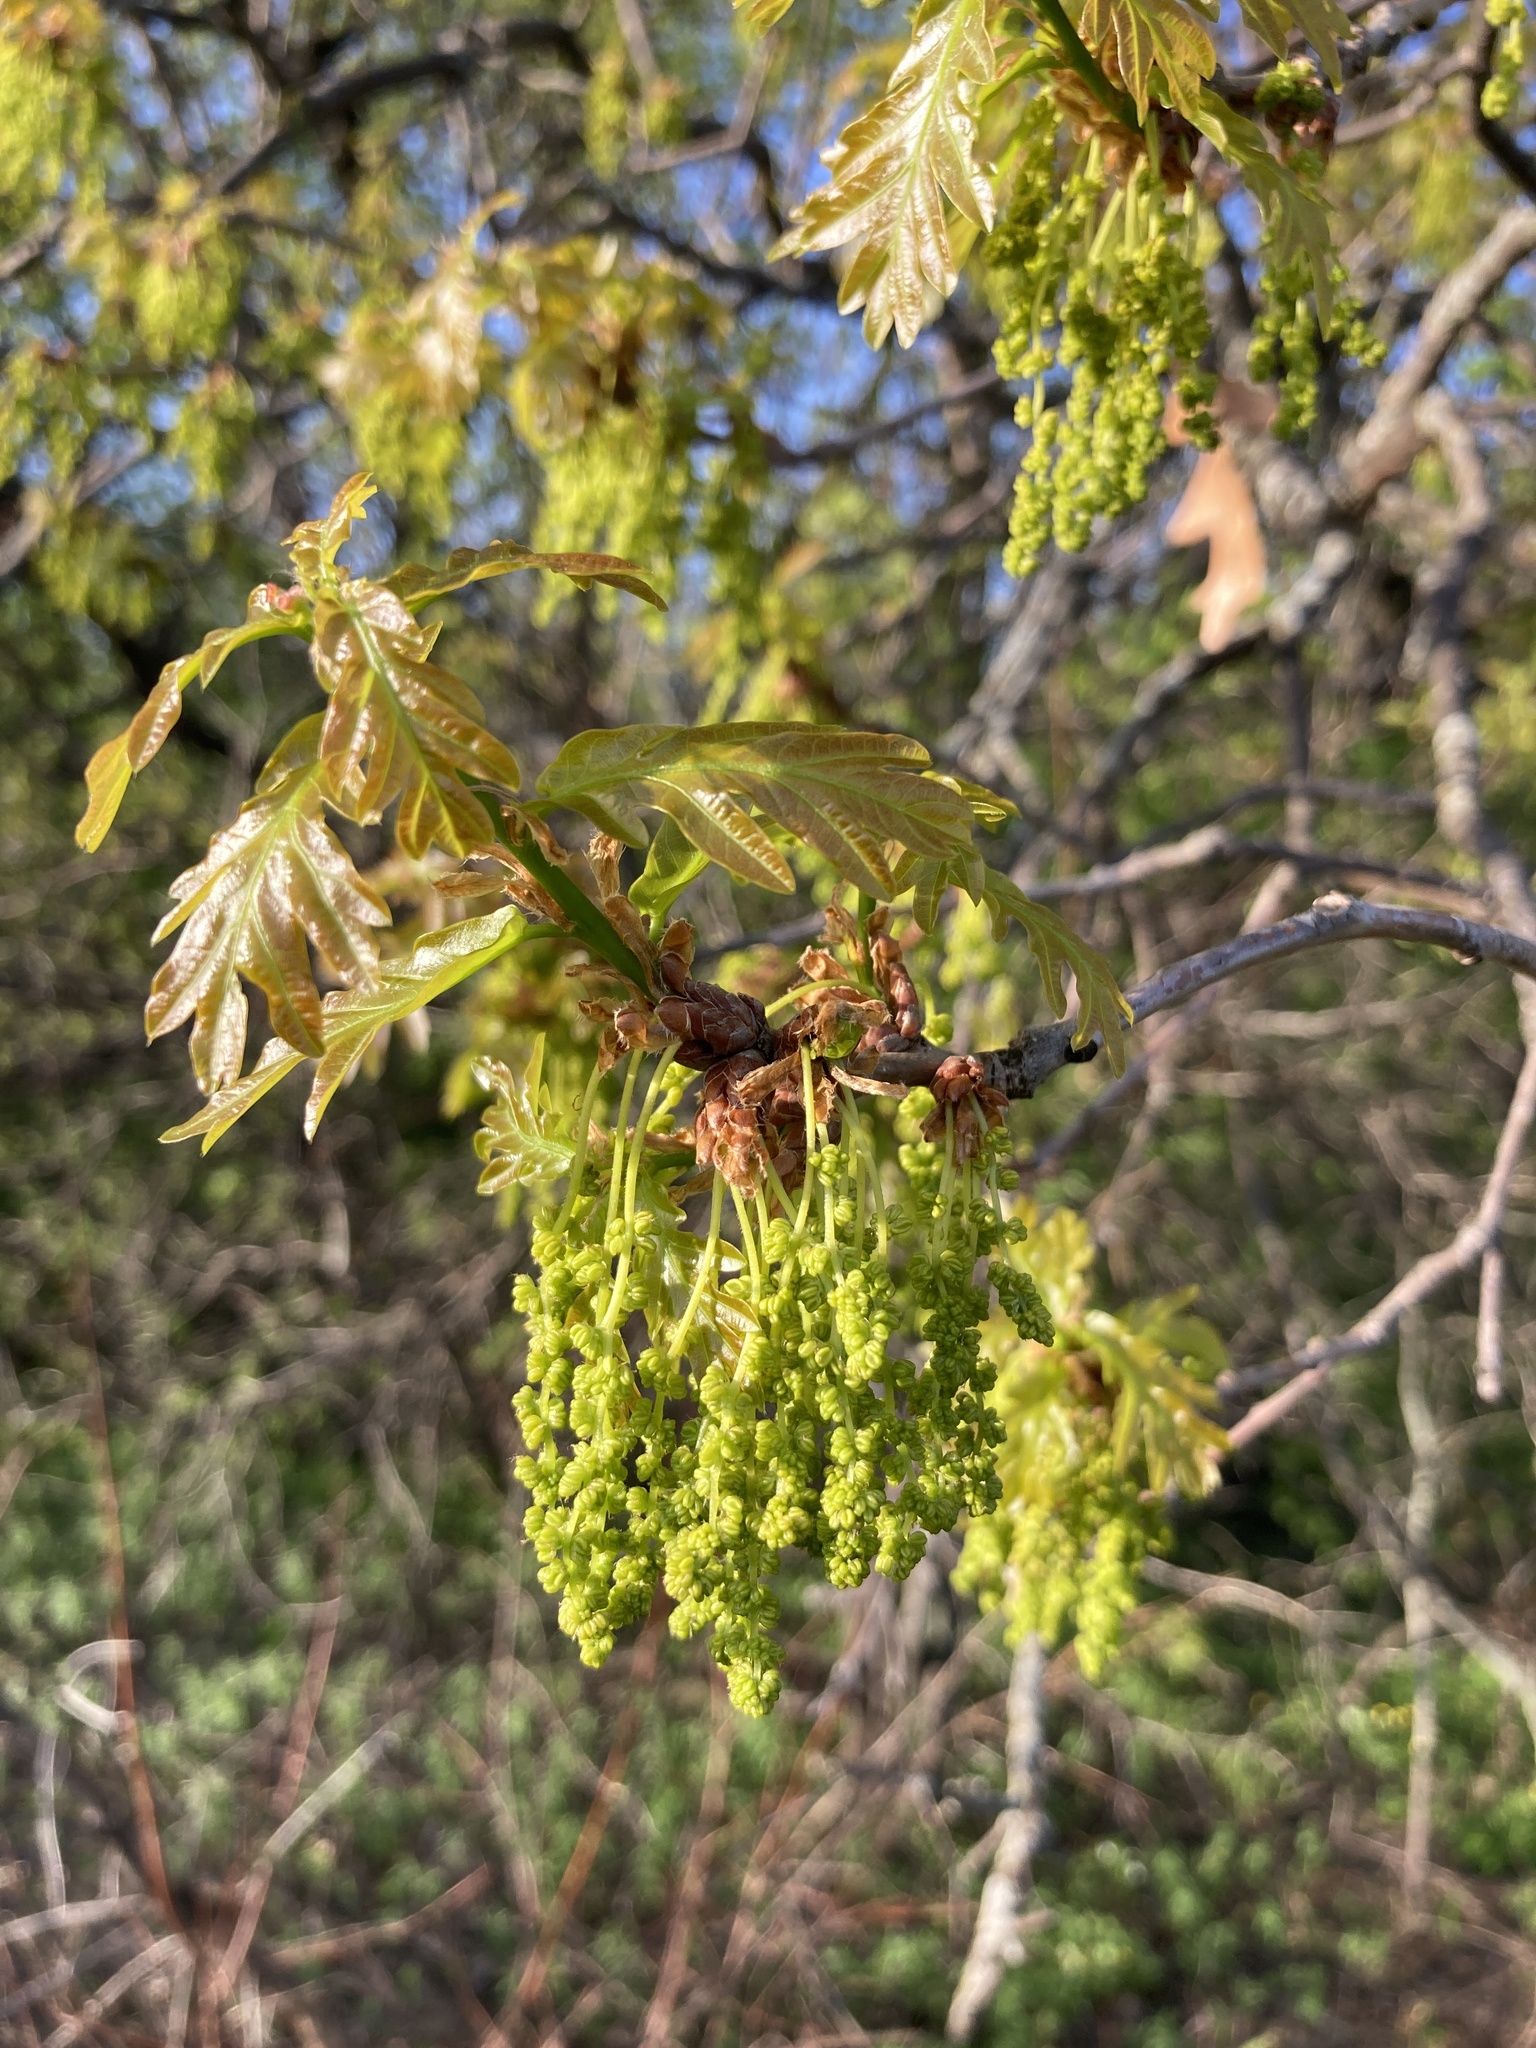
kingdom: Plantae
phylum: Tracheophyta
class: Magnoliopsida
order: Fagales
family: Fagaceae
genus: Quercus
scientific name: Quercus robur
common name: Pedunculate oak
